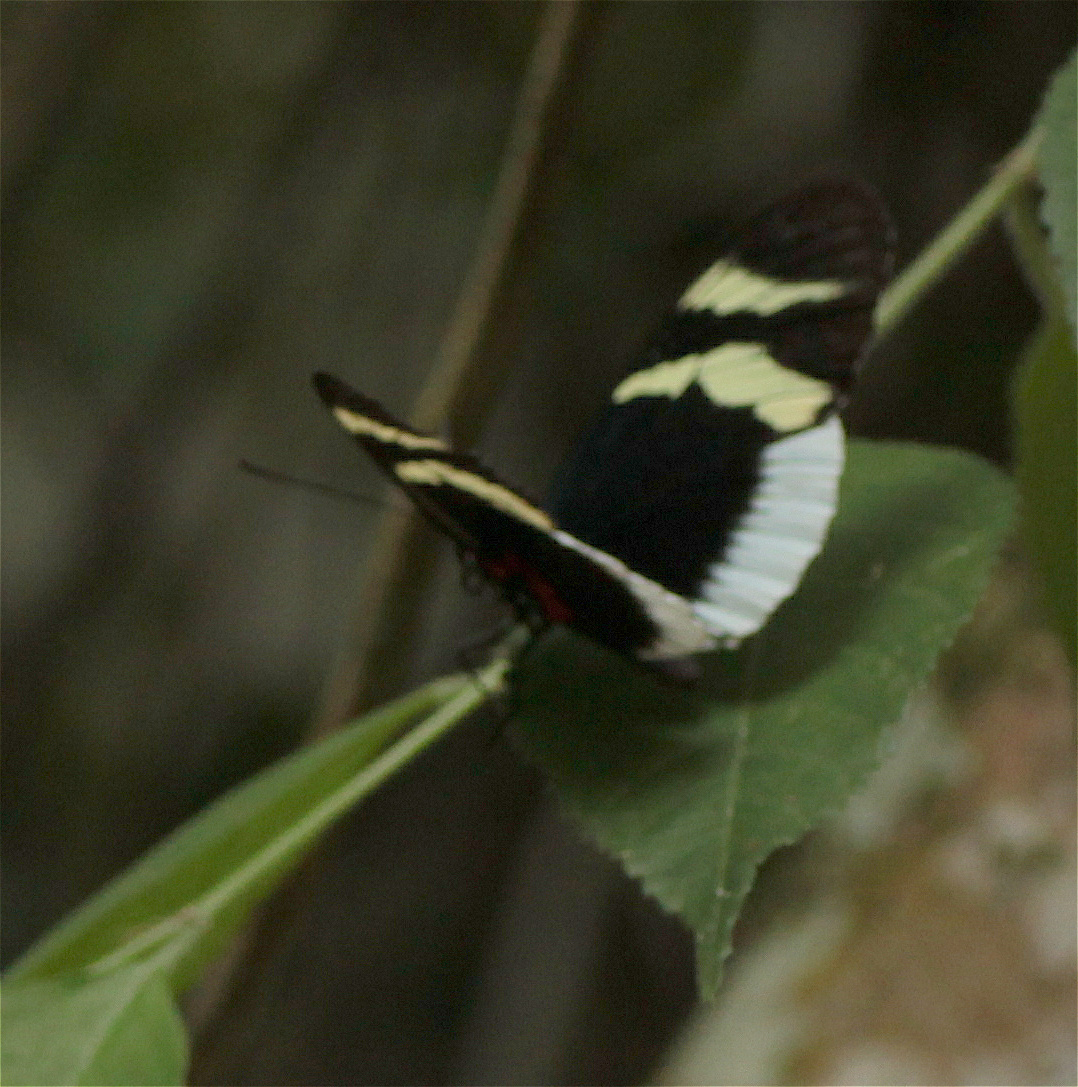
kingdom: Animalia
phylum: Arthropoda
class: Insecta
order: Lepidoptera
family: Nymphalidae
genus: Heliconius
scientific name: Heliconius eleuchia
